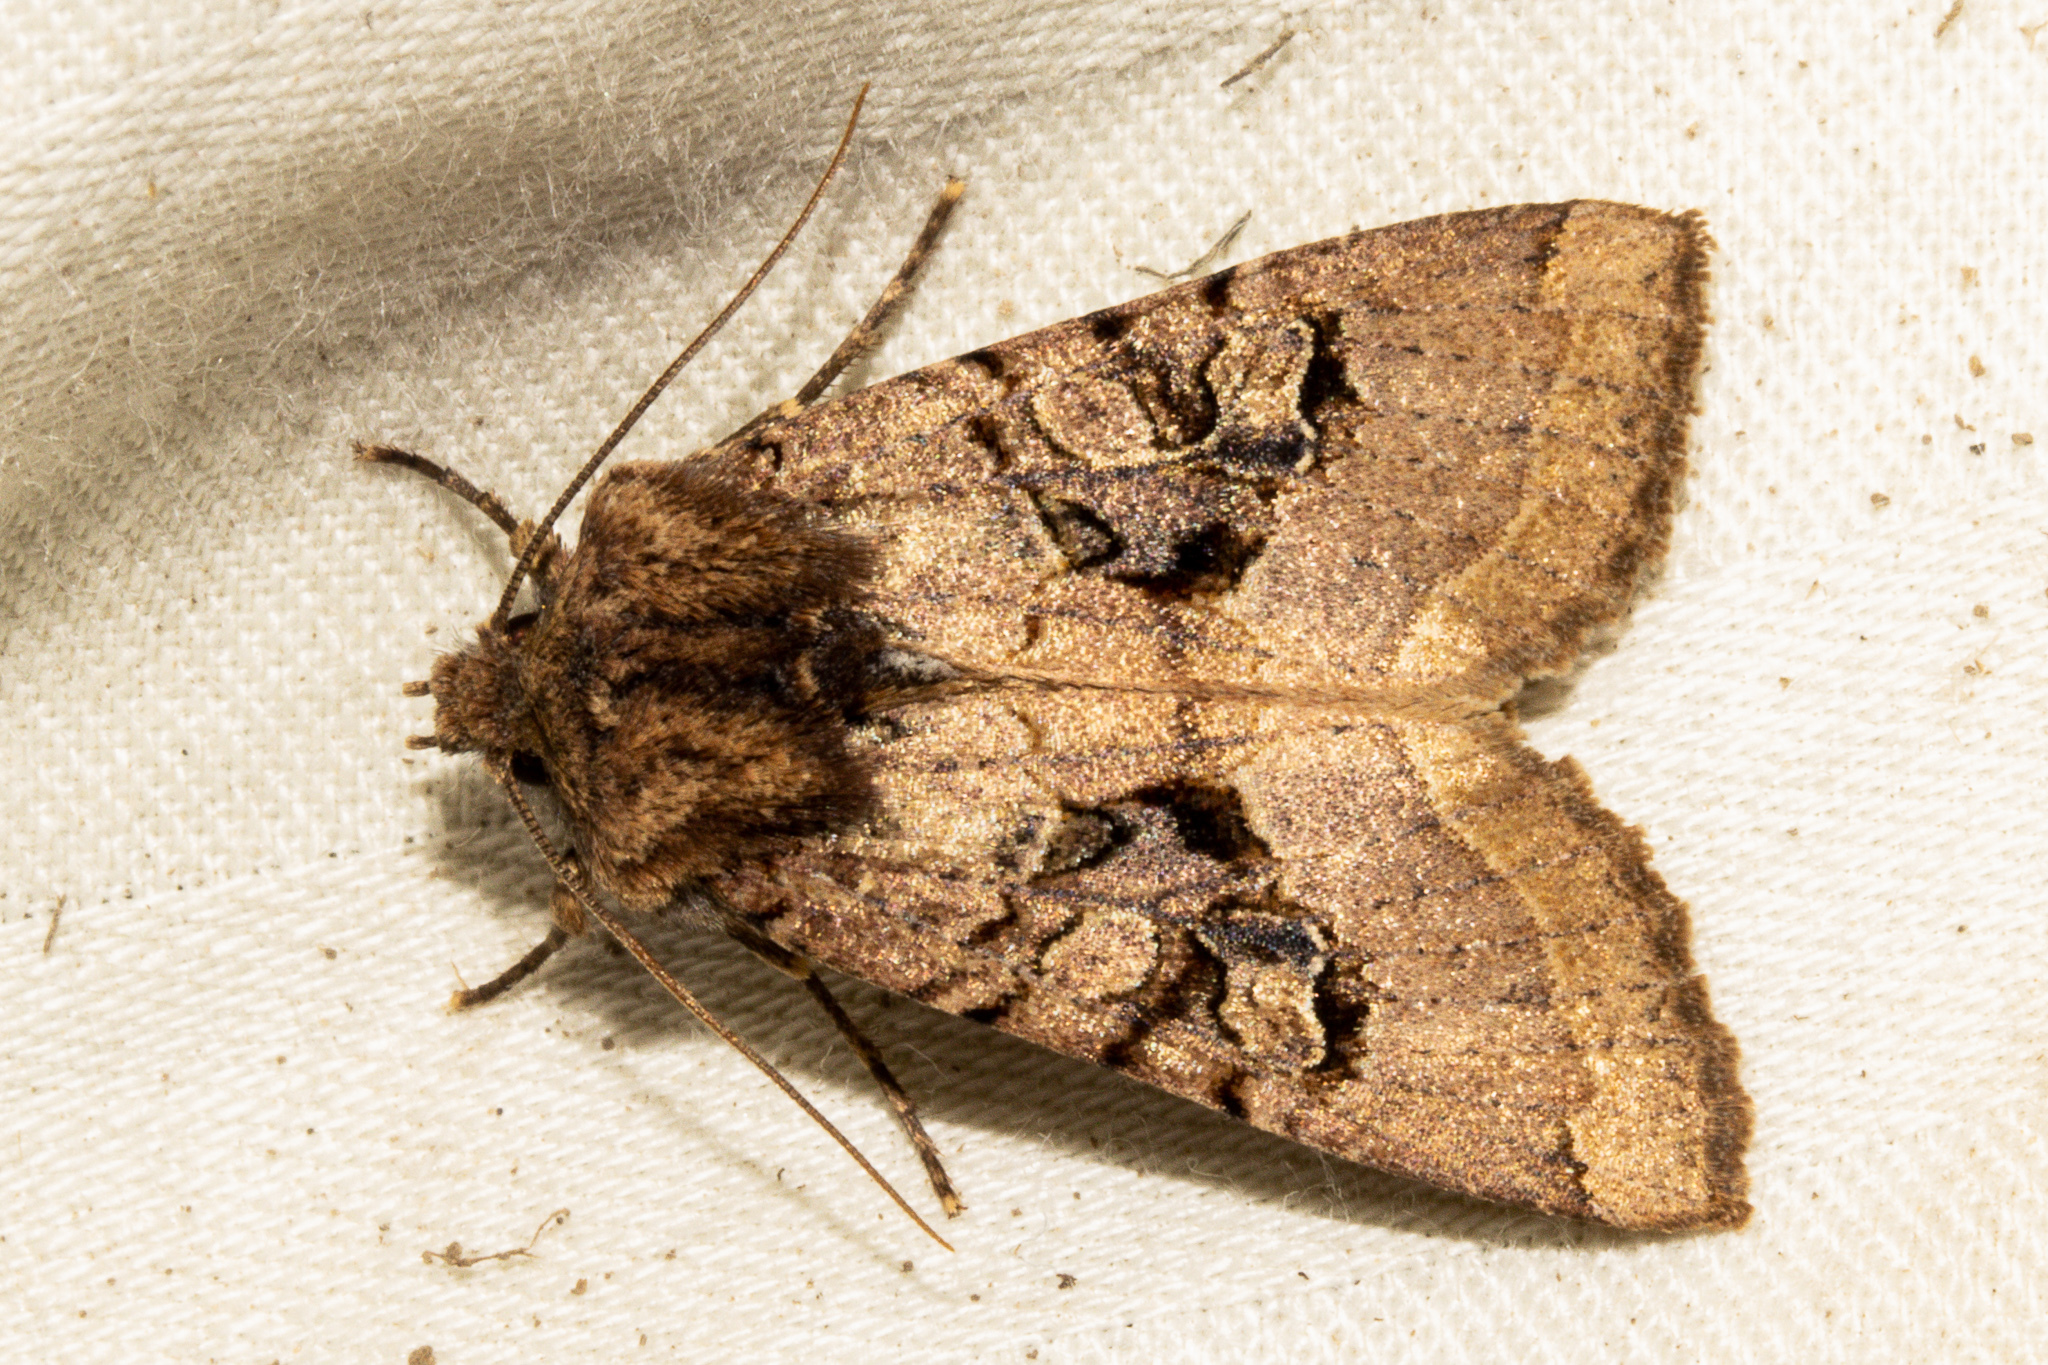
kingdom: Animalia
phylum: Arthropoda
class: Insecta
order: Lepidoptera
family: Noctuidae
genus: Meterana
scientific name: Meterana tartaraea
